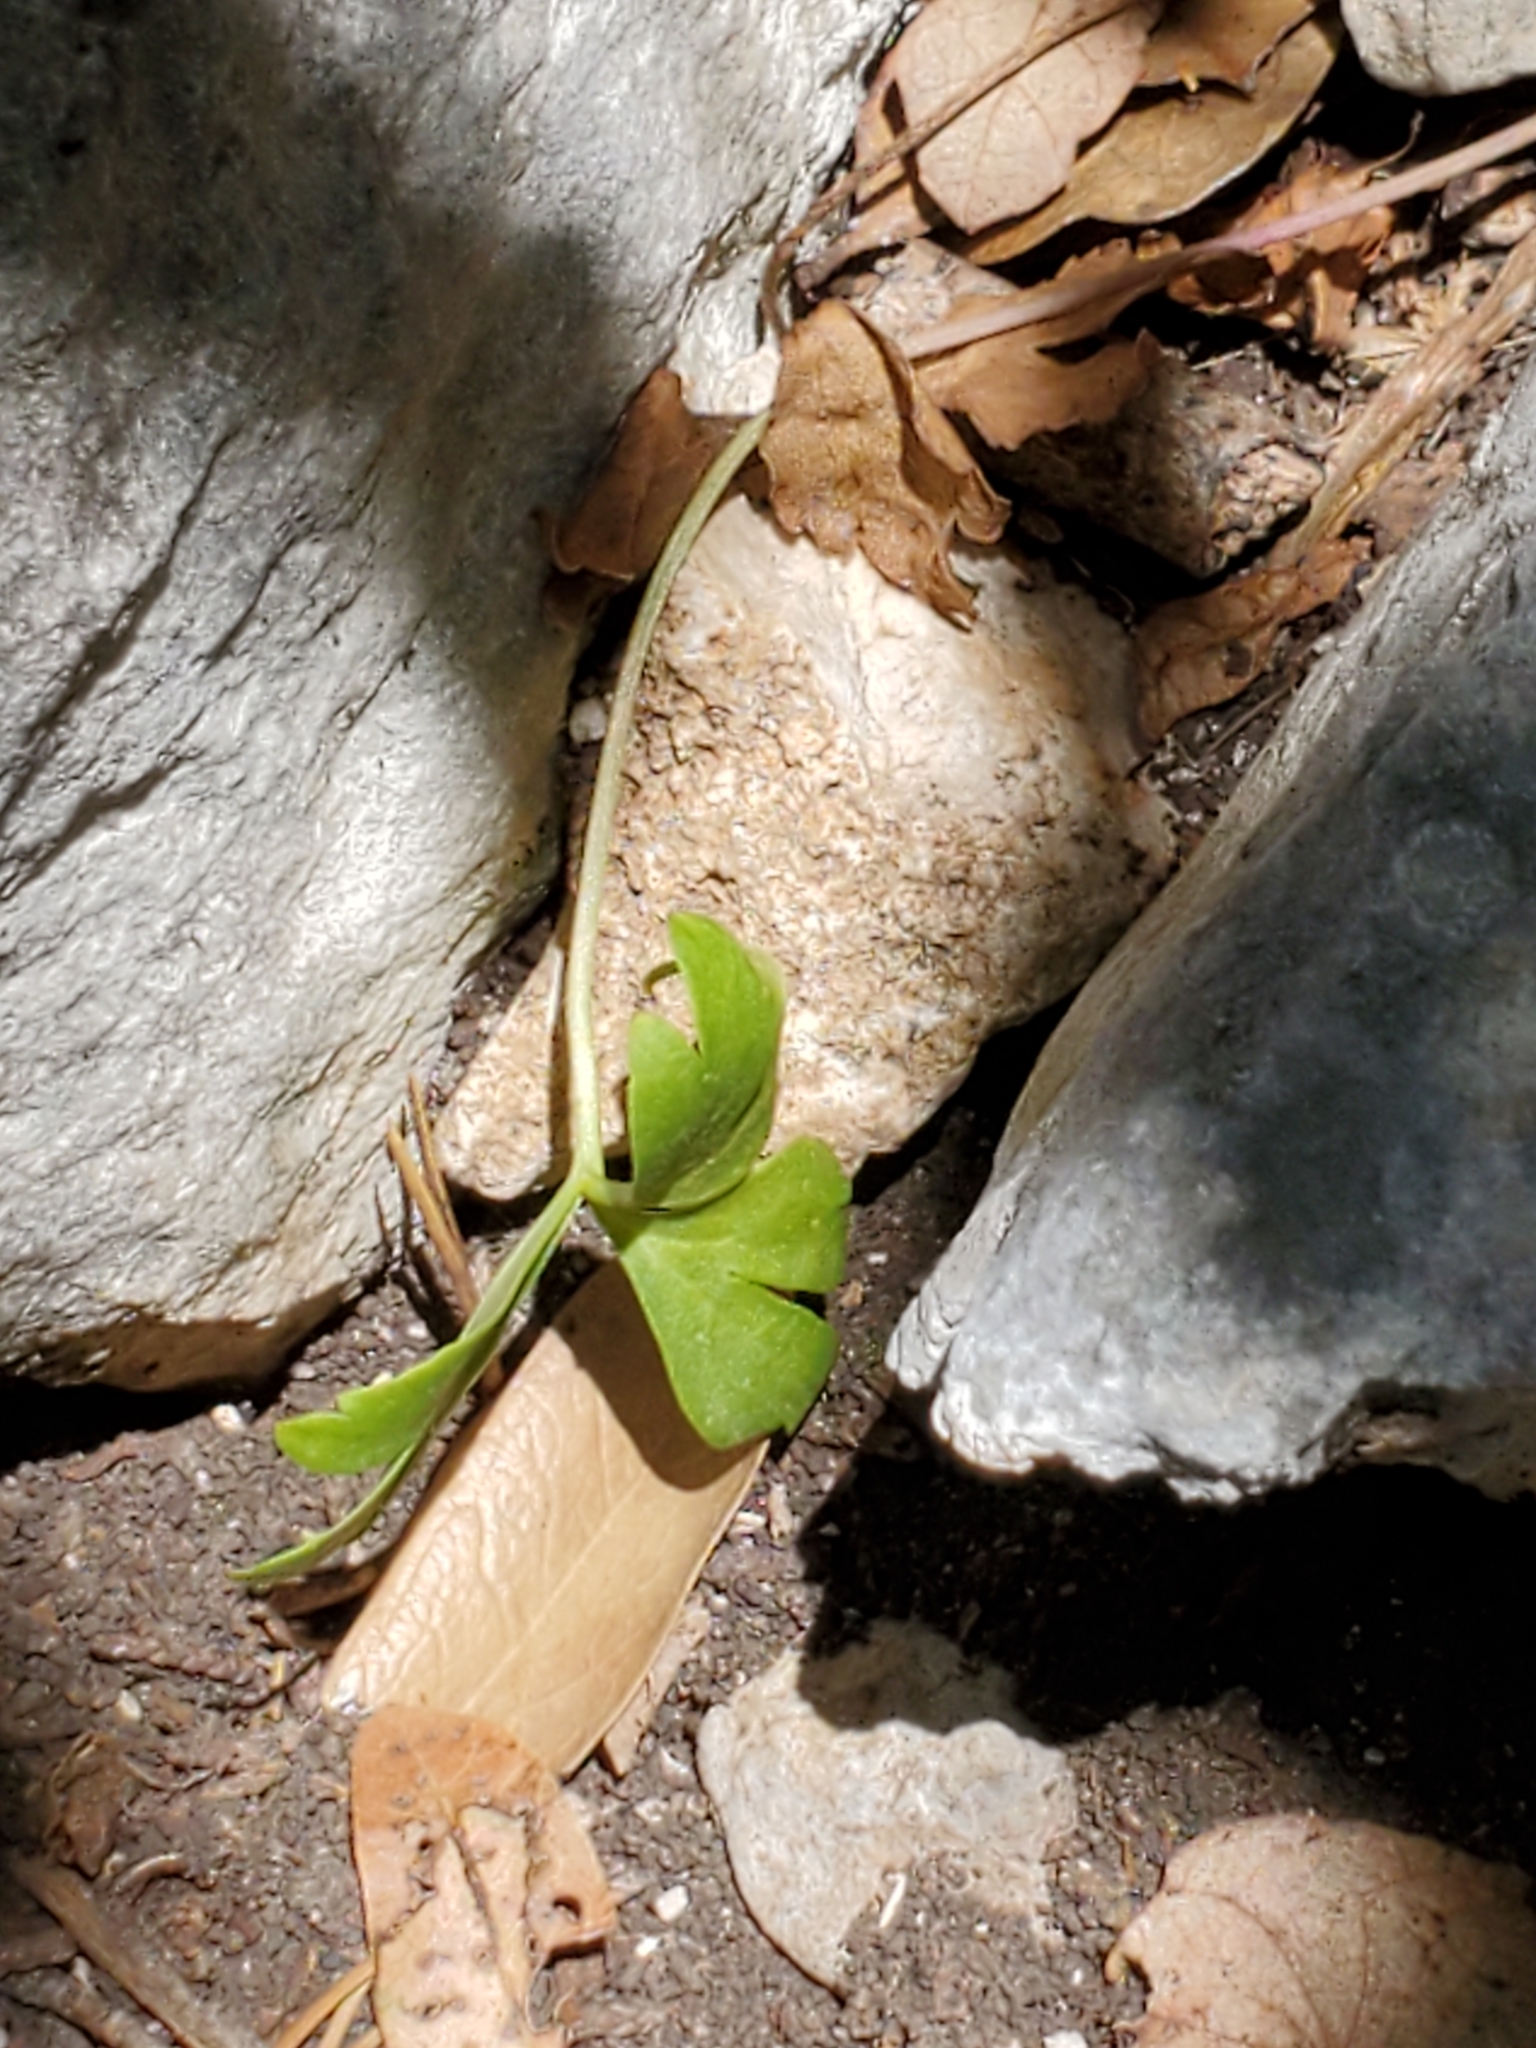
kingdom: Plantae
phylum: Tracheophyta
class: Magnoliopsida
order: Ranunculales
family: Ranunculaceae
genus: Anemone
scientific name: Anemone edwardsiana
